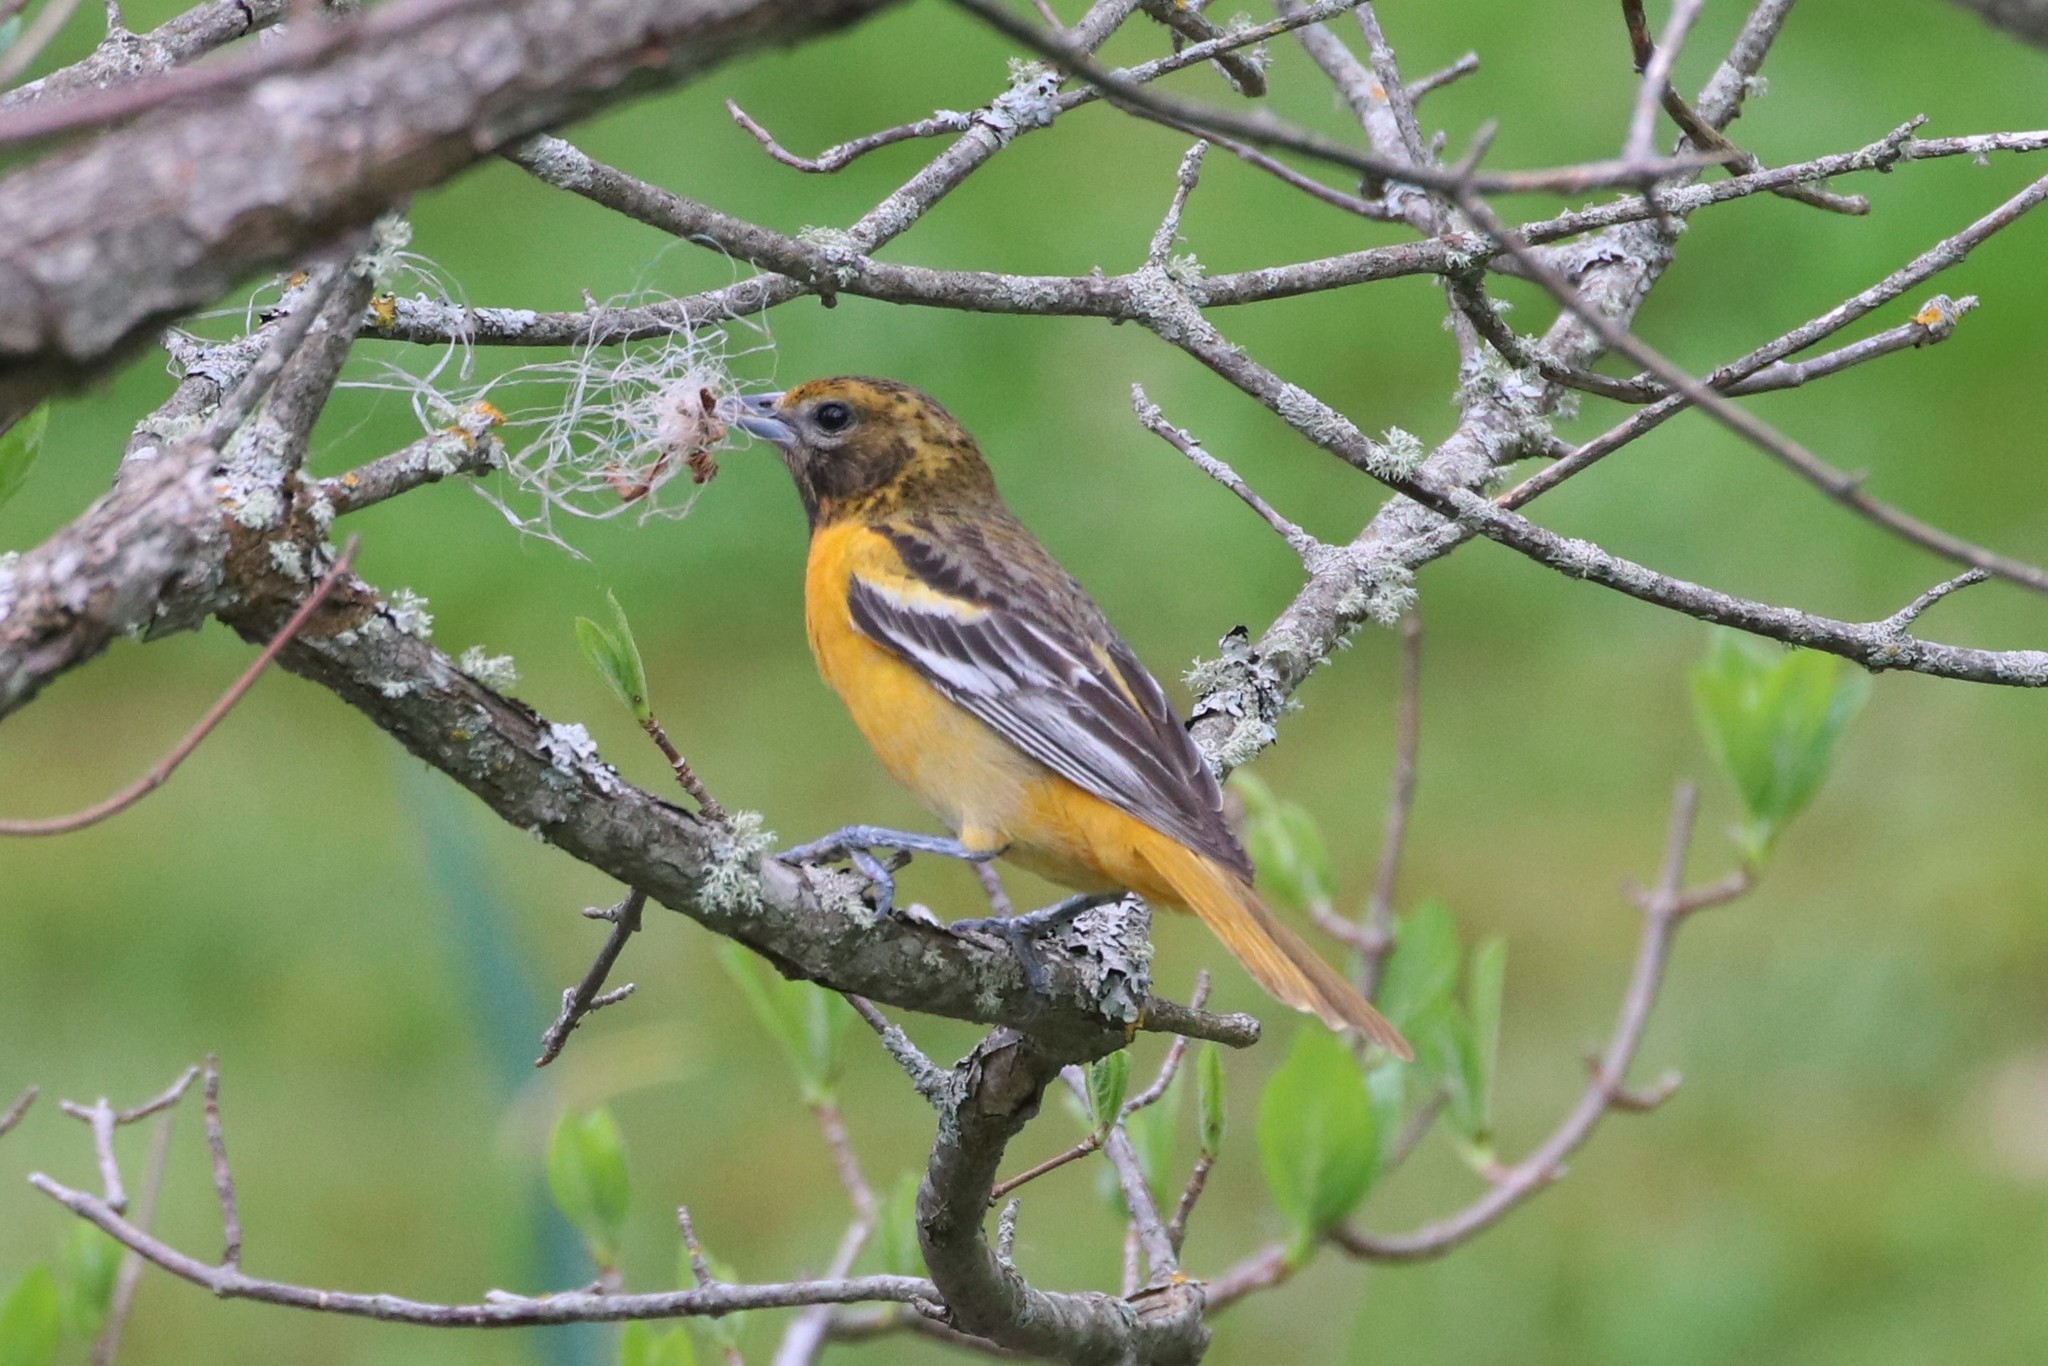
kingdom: Animalia
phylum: Chordata
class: Aves
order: Passeriformes
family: Icteridae
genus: Icterus
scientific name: Icterus galbula
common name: Baltimore oriole
